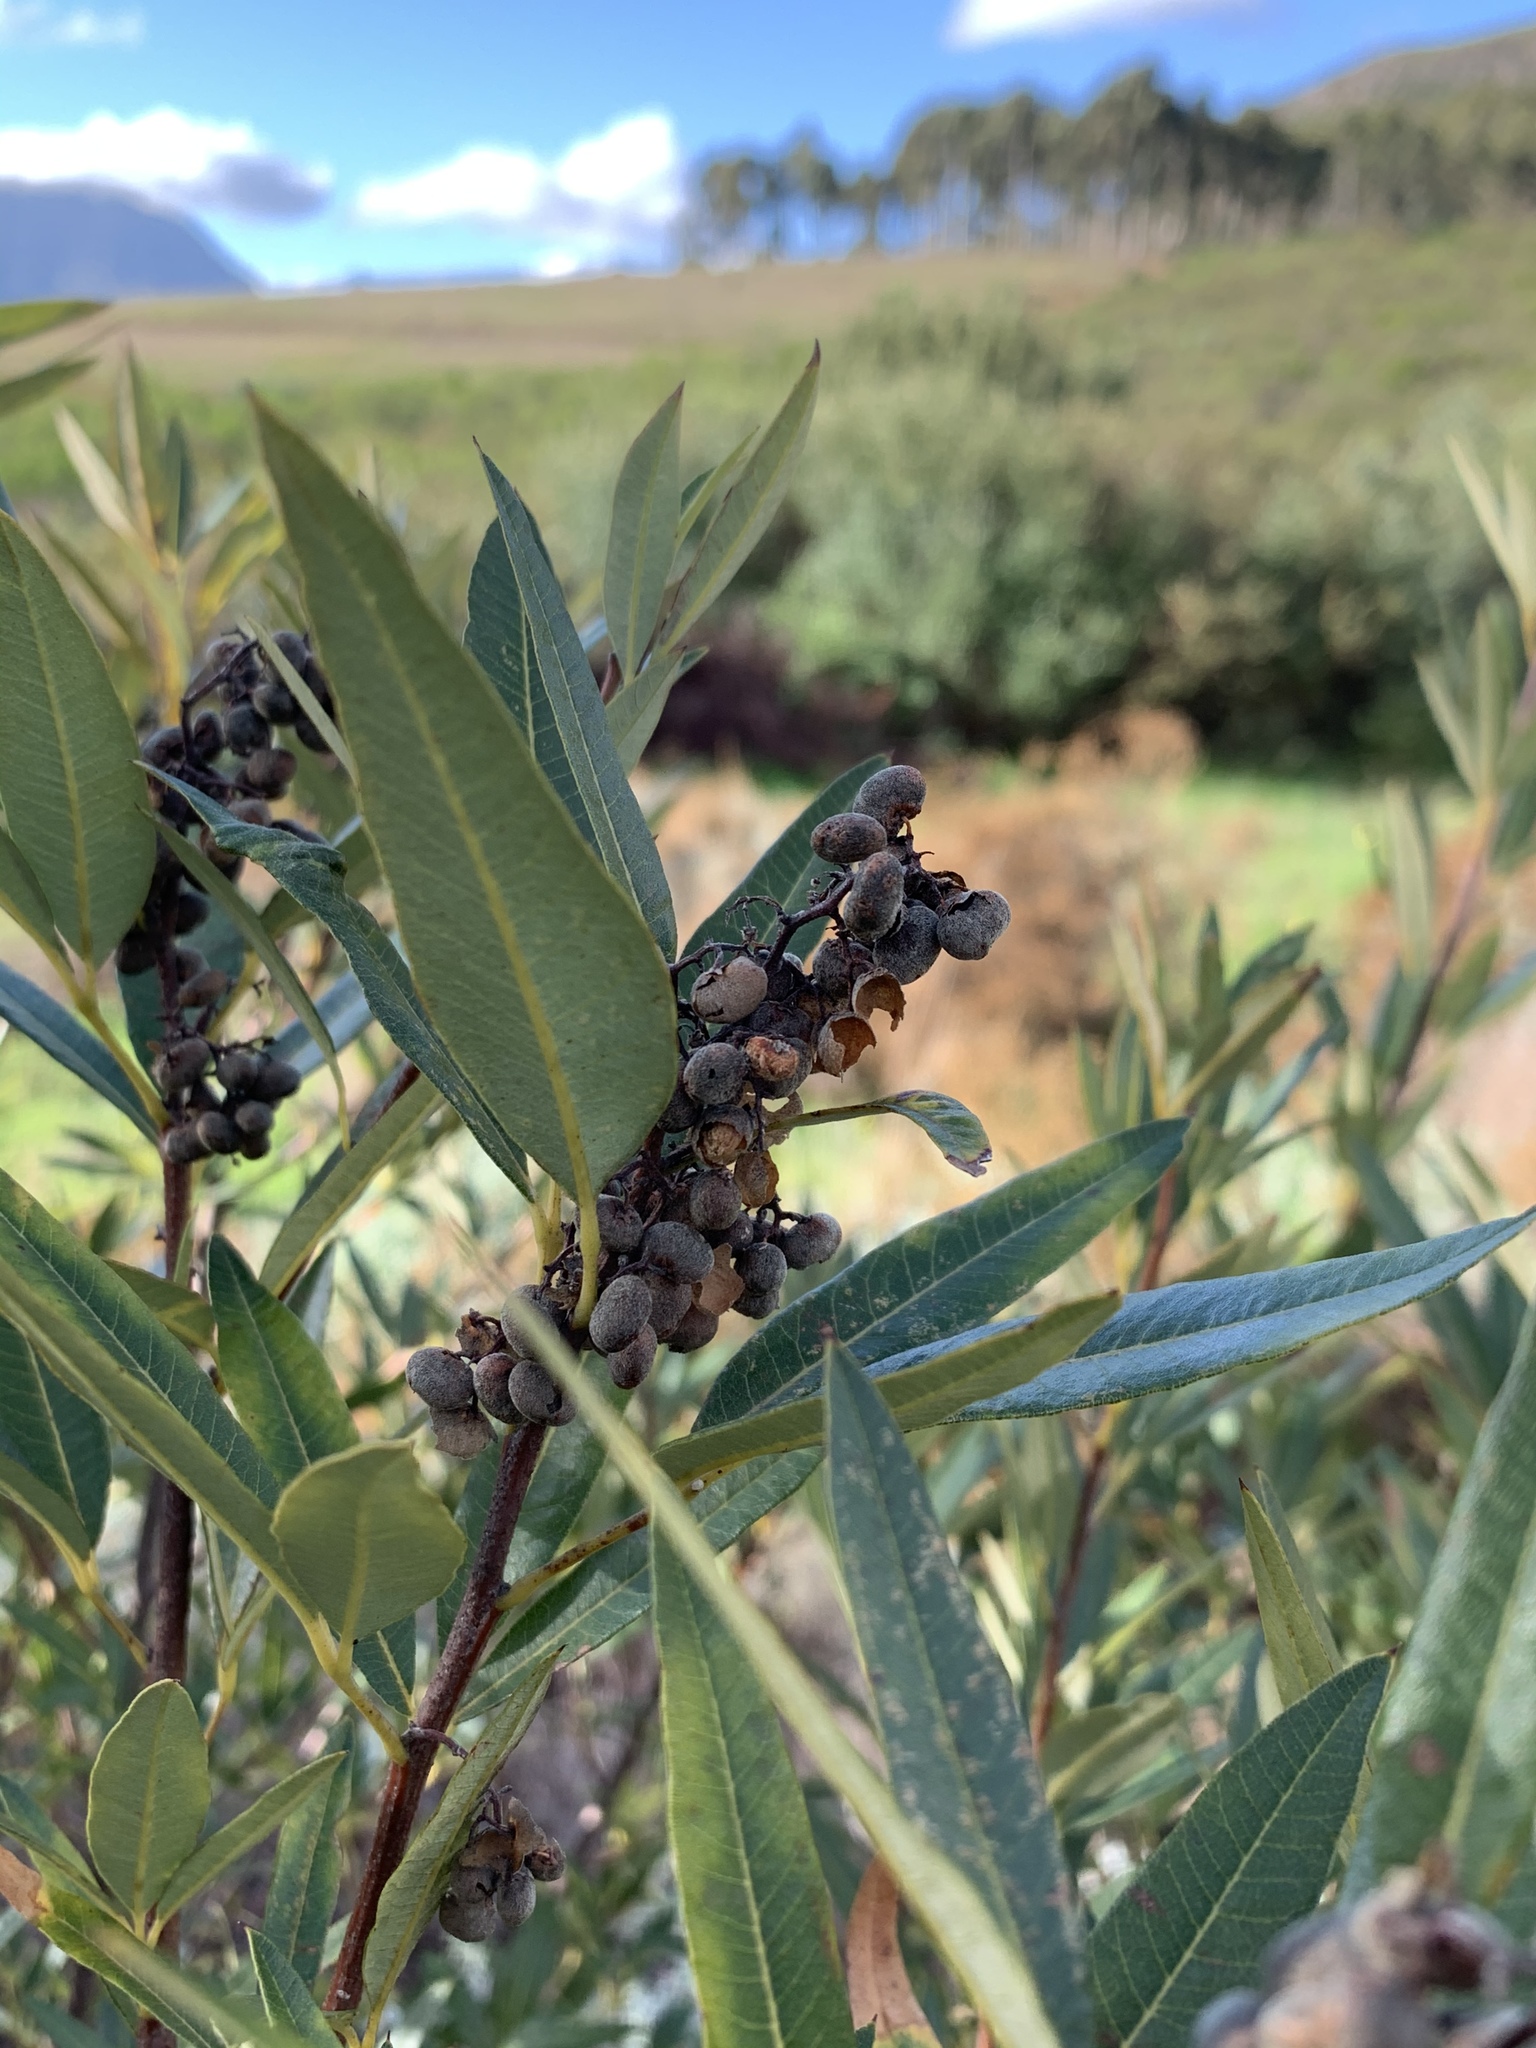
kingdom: Plantae
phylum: Tracheophyta
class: Magnoliopsida
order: Sapindales
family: Anacardiaceae
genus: Searsia
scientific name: Searsia angustifolia
